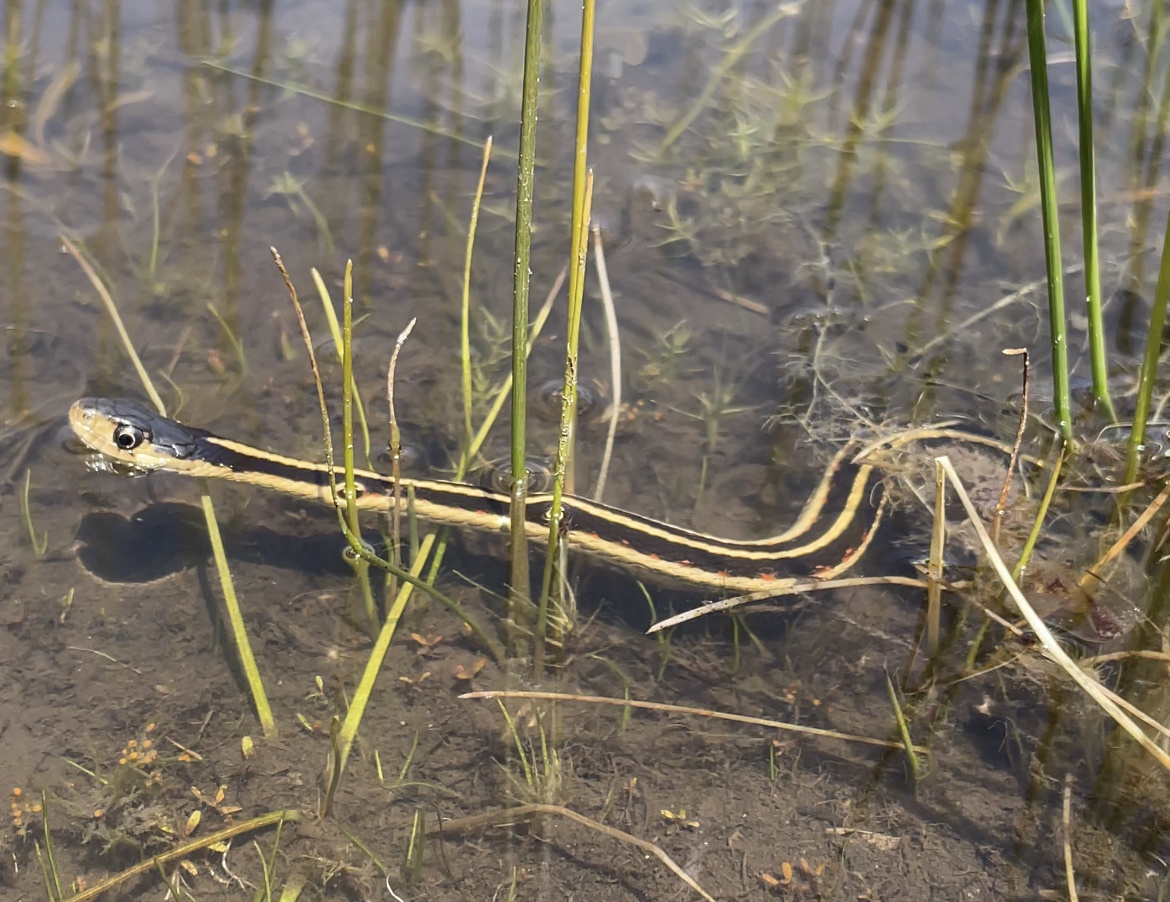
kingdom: Animalia
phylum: Chordata
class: Squamata
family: Colubridae
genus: Thamnophis
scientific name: Thamnophis sirtalis
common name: Common garter snake
